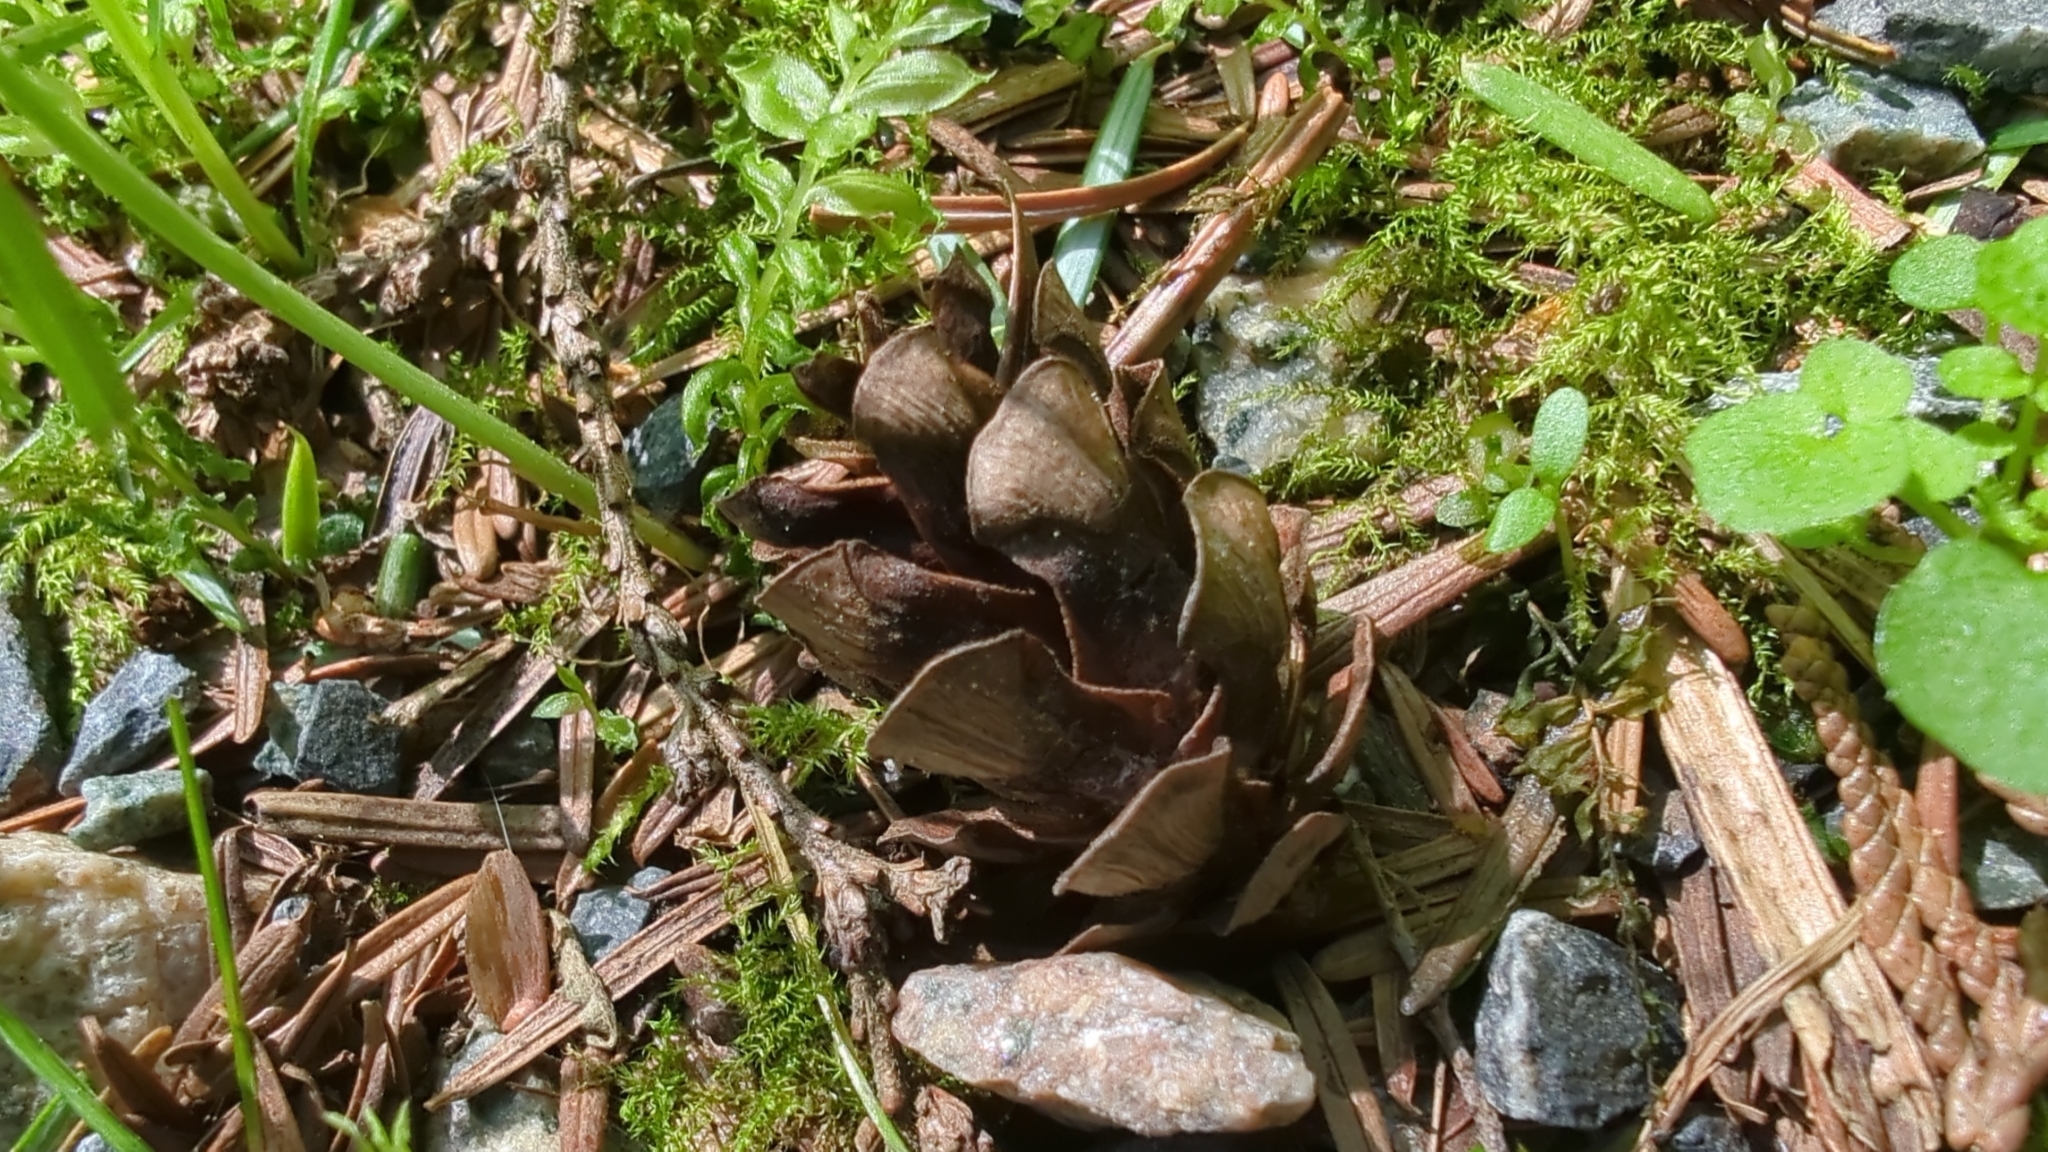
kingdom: Plantae
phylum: Tracheophyta
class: Pinopsida
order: Pinales
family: Pinaceae
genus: Tsuga
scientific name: Tsuga heterophylla
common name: Western hemlock
